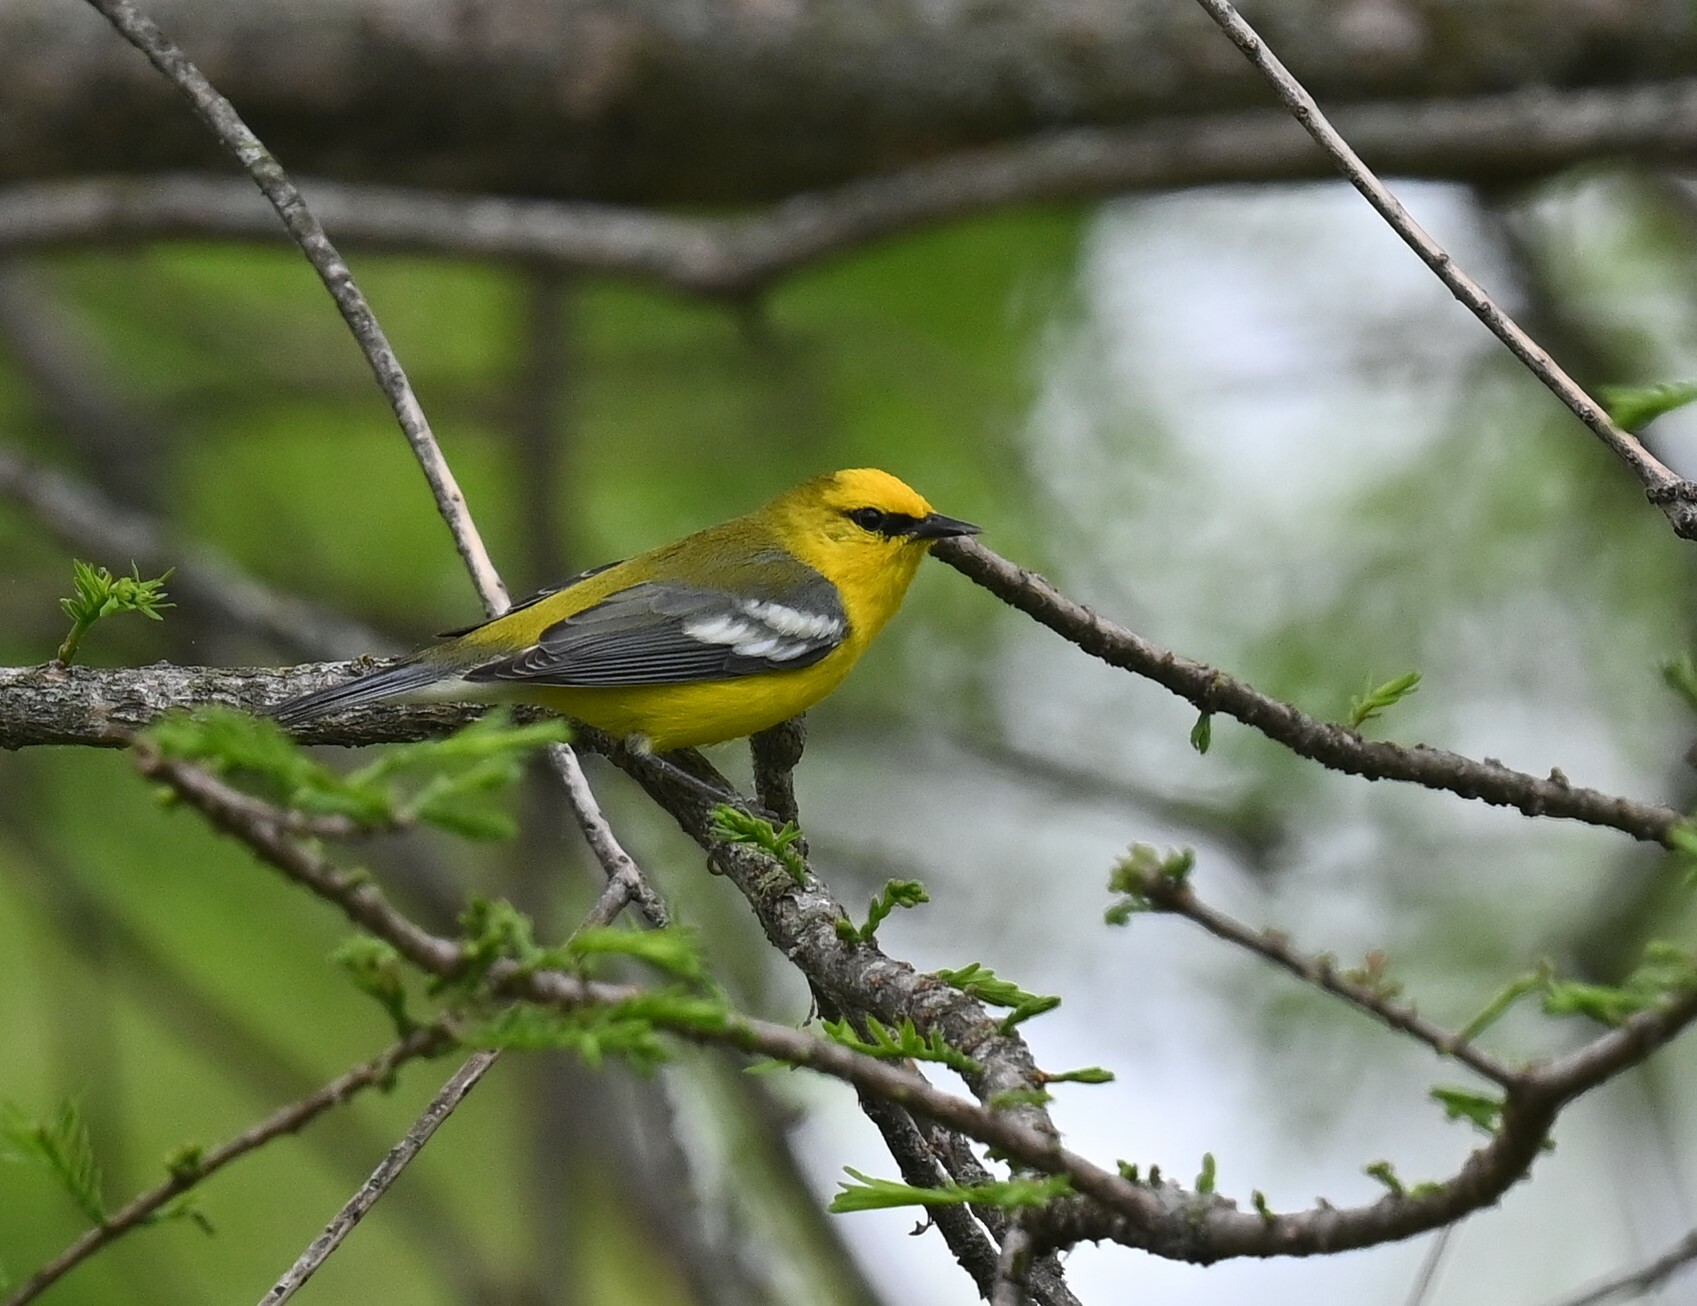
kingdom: Animalia
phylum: Chordata
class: Aves
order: Passeriformes
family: Parulidae
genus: Vermivora
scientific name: Vermivora cyanoptera
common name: Blue-winged warbler
